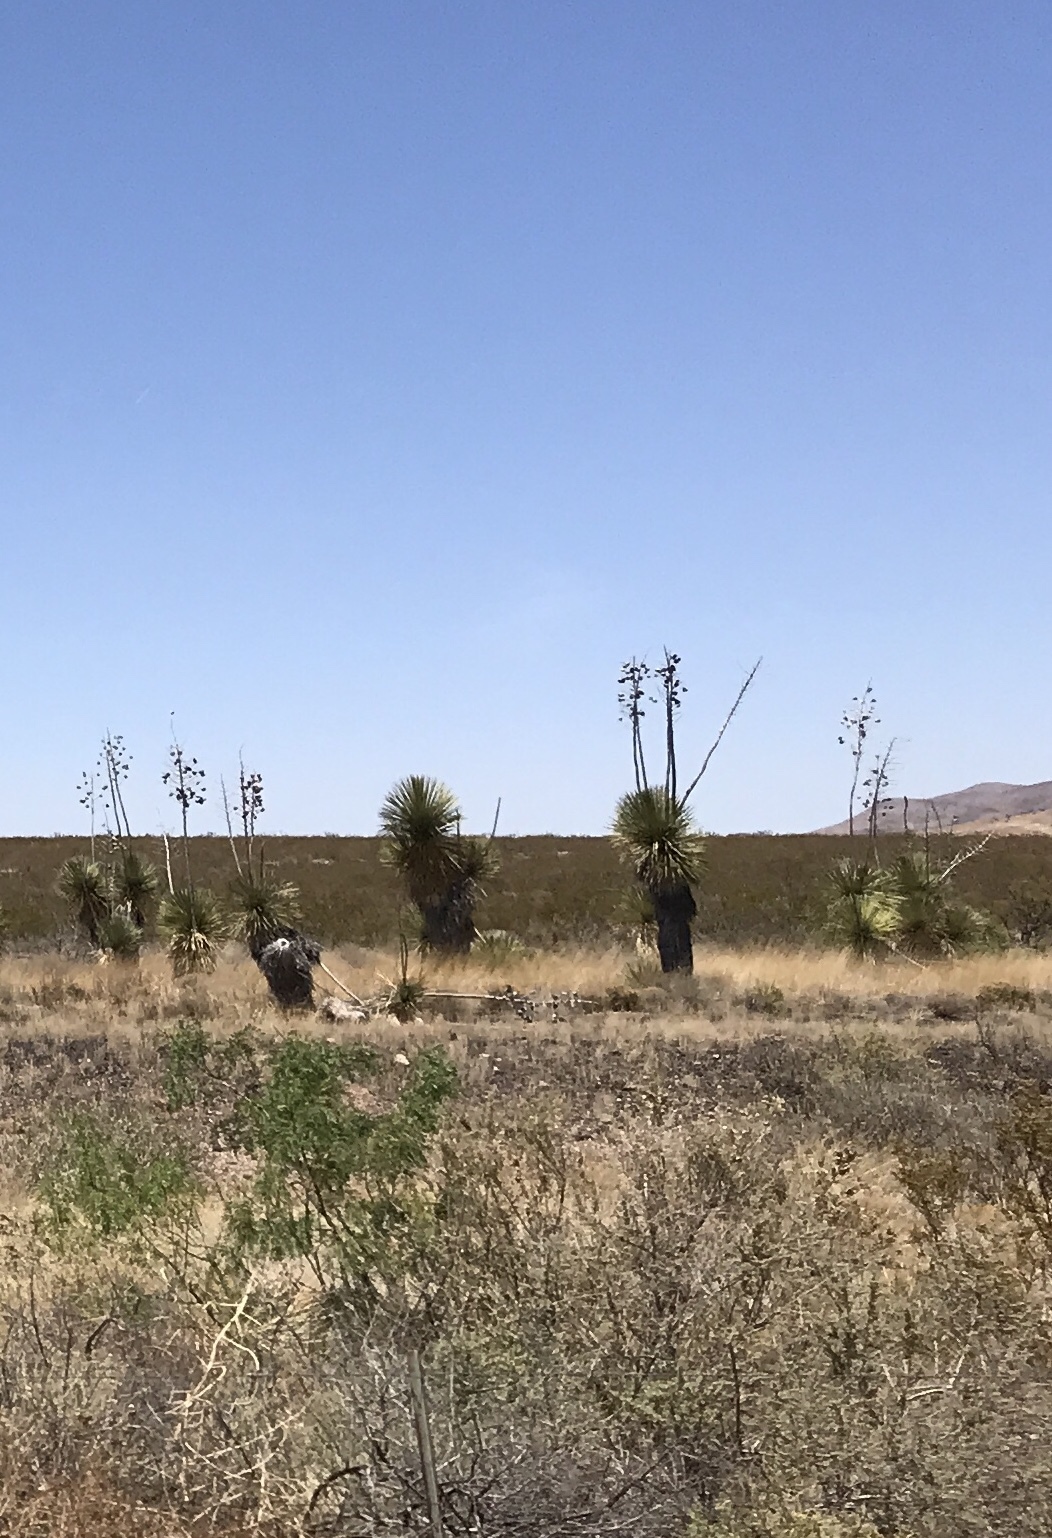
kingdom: Plantae
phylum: Tracheophyta
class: Liliopsida
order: Asparagales
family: Asparagaceae
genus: Yucca
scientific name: Yucca elata
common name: Palmella
